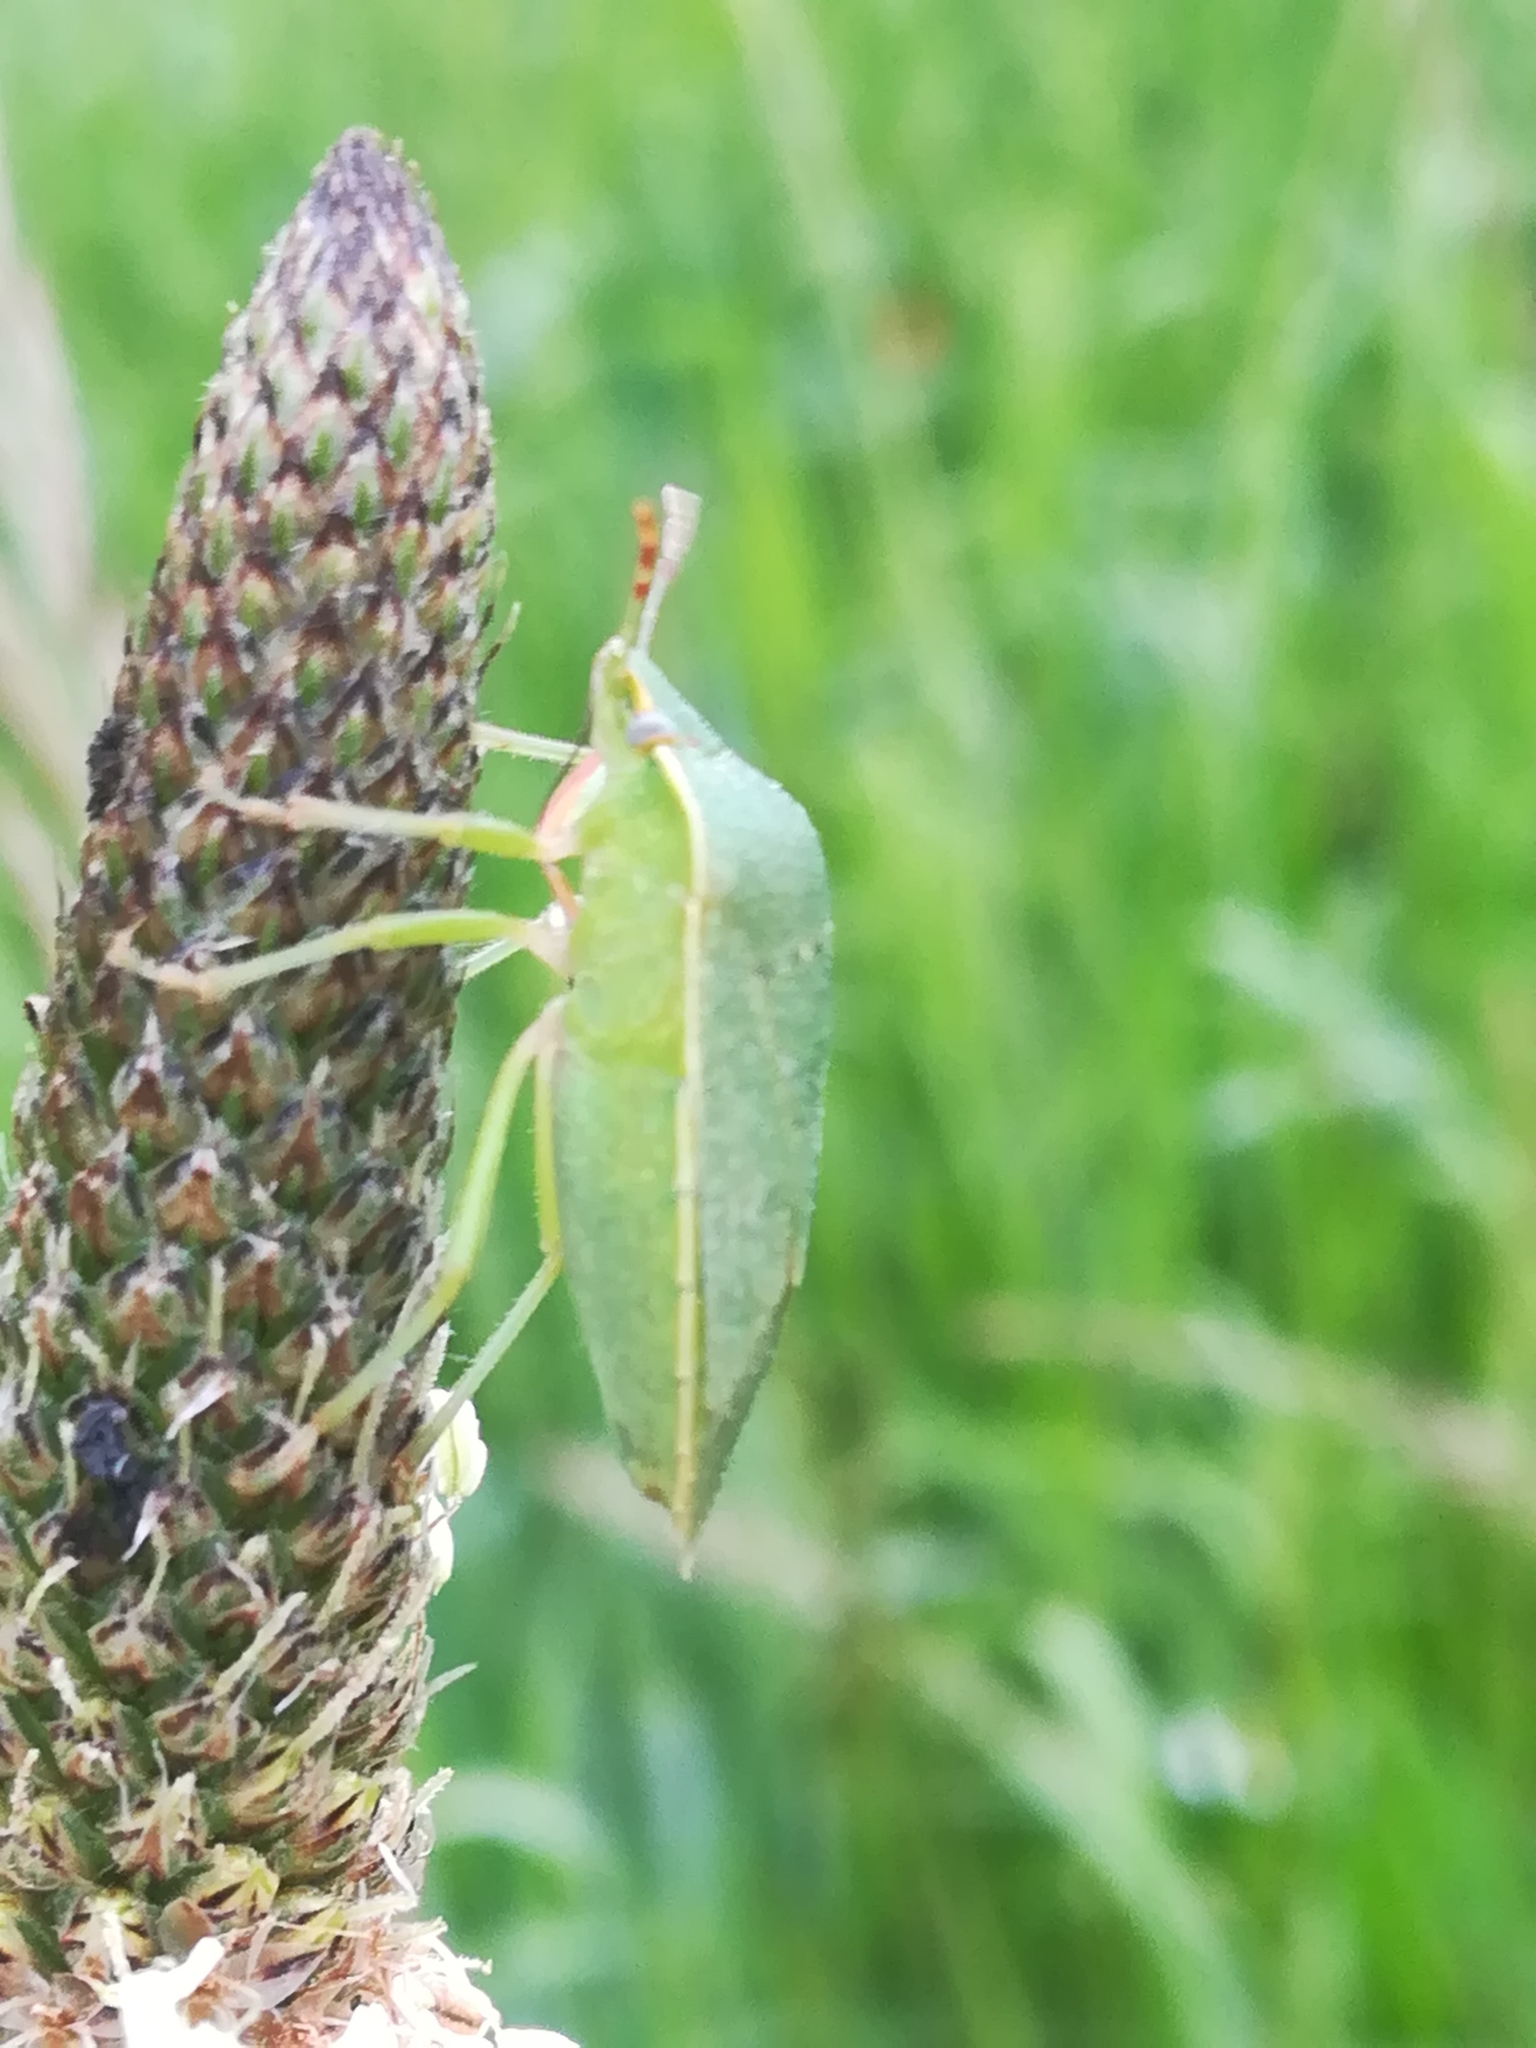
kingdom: Animalia
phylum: Arthropoda
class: Insecta
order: Hemiptera
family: Pentatomidae
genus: Nezara
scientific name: Nezara viridula
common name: Southern green stink bug
